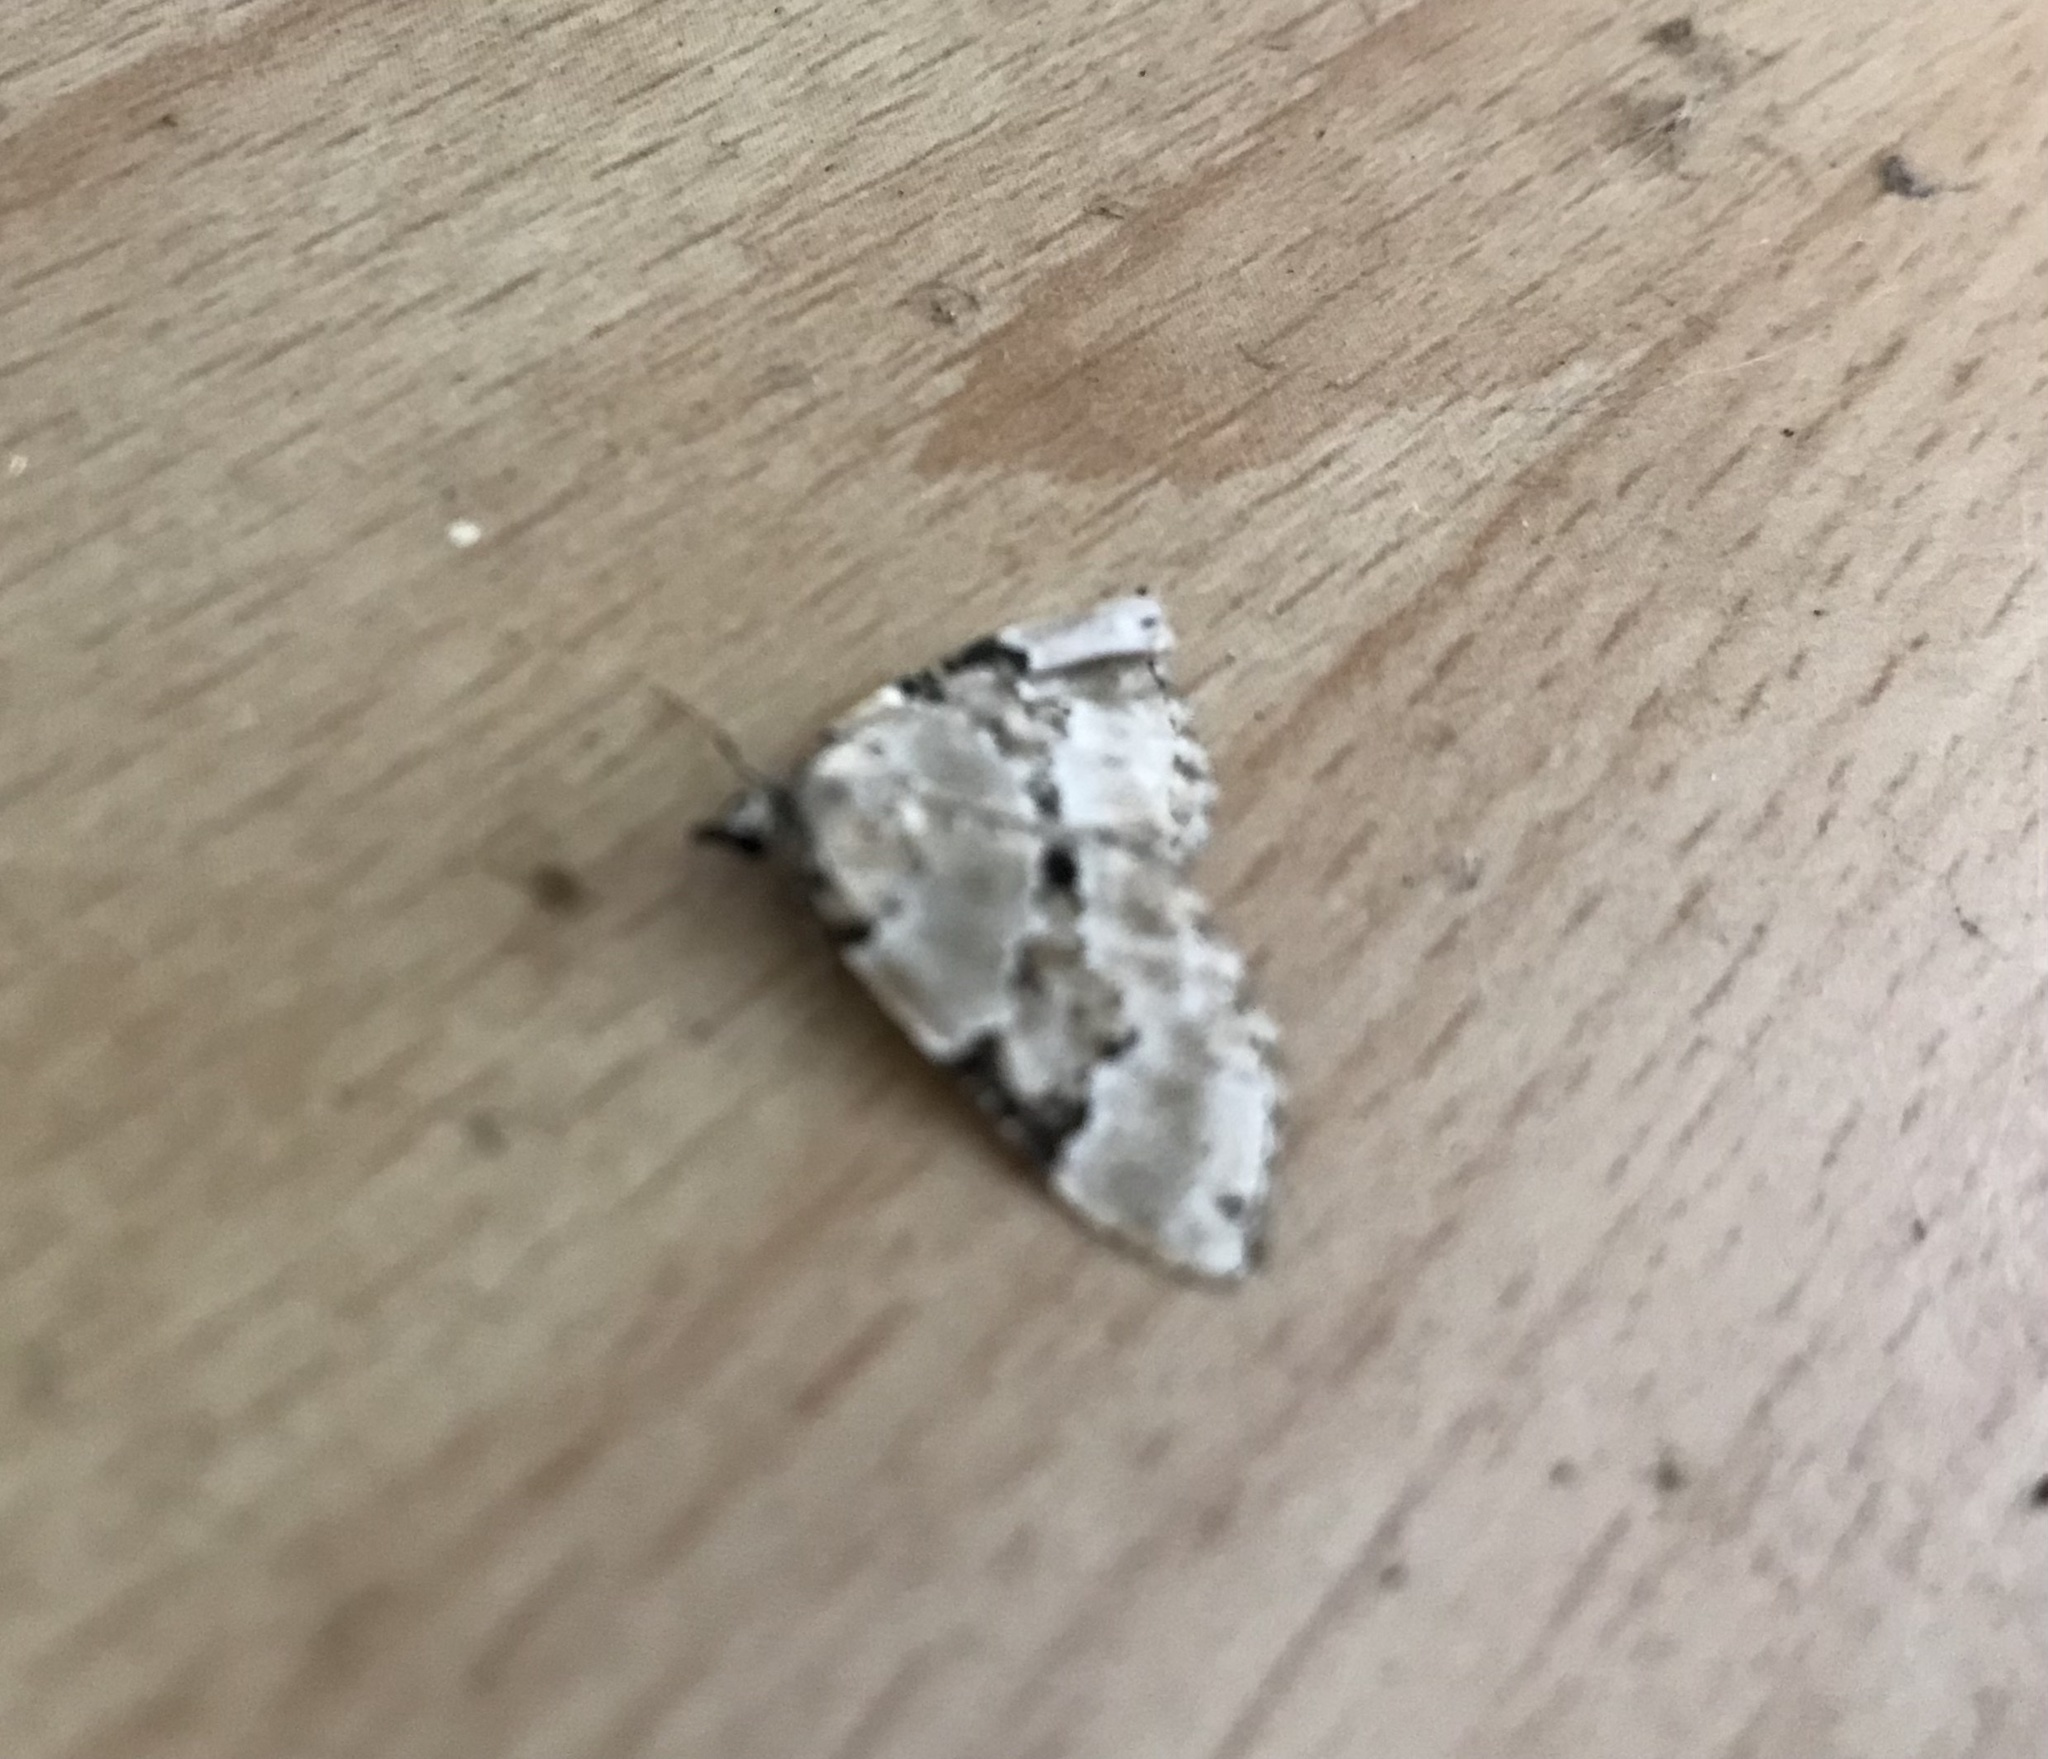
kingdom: Animalia
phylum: Arthropoda
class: Insecta
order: Lepidoptera
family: Geometridae
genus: Colostygia
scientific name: Colostygia pectinataria
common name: Green carpet
